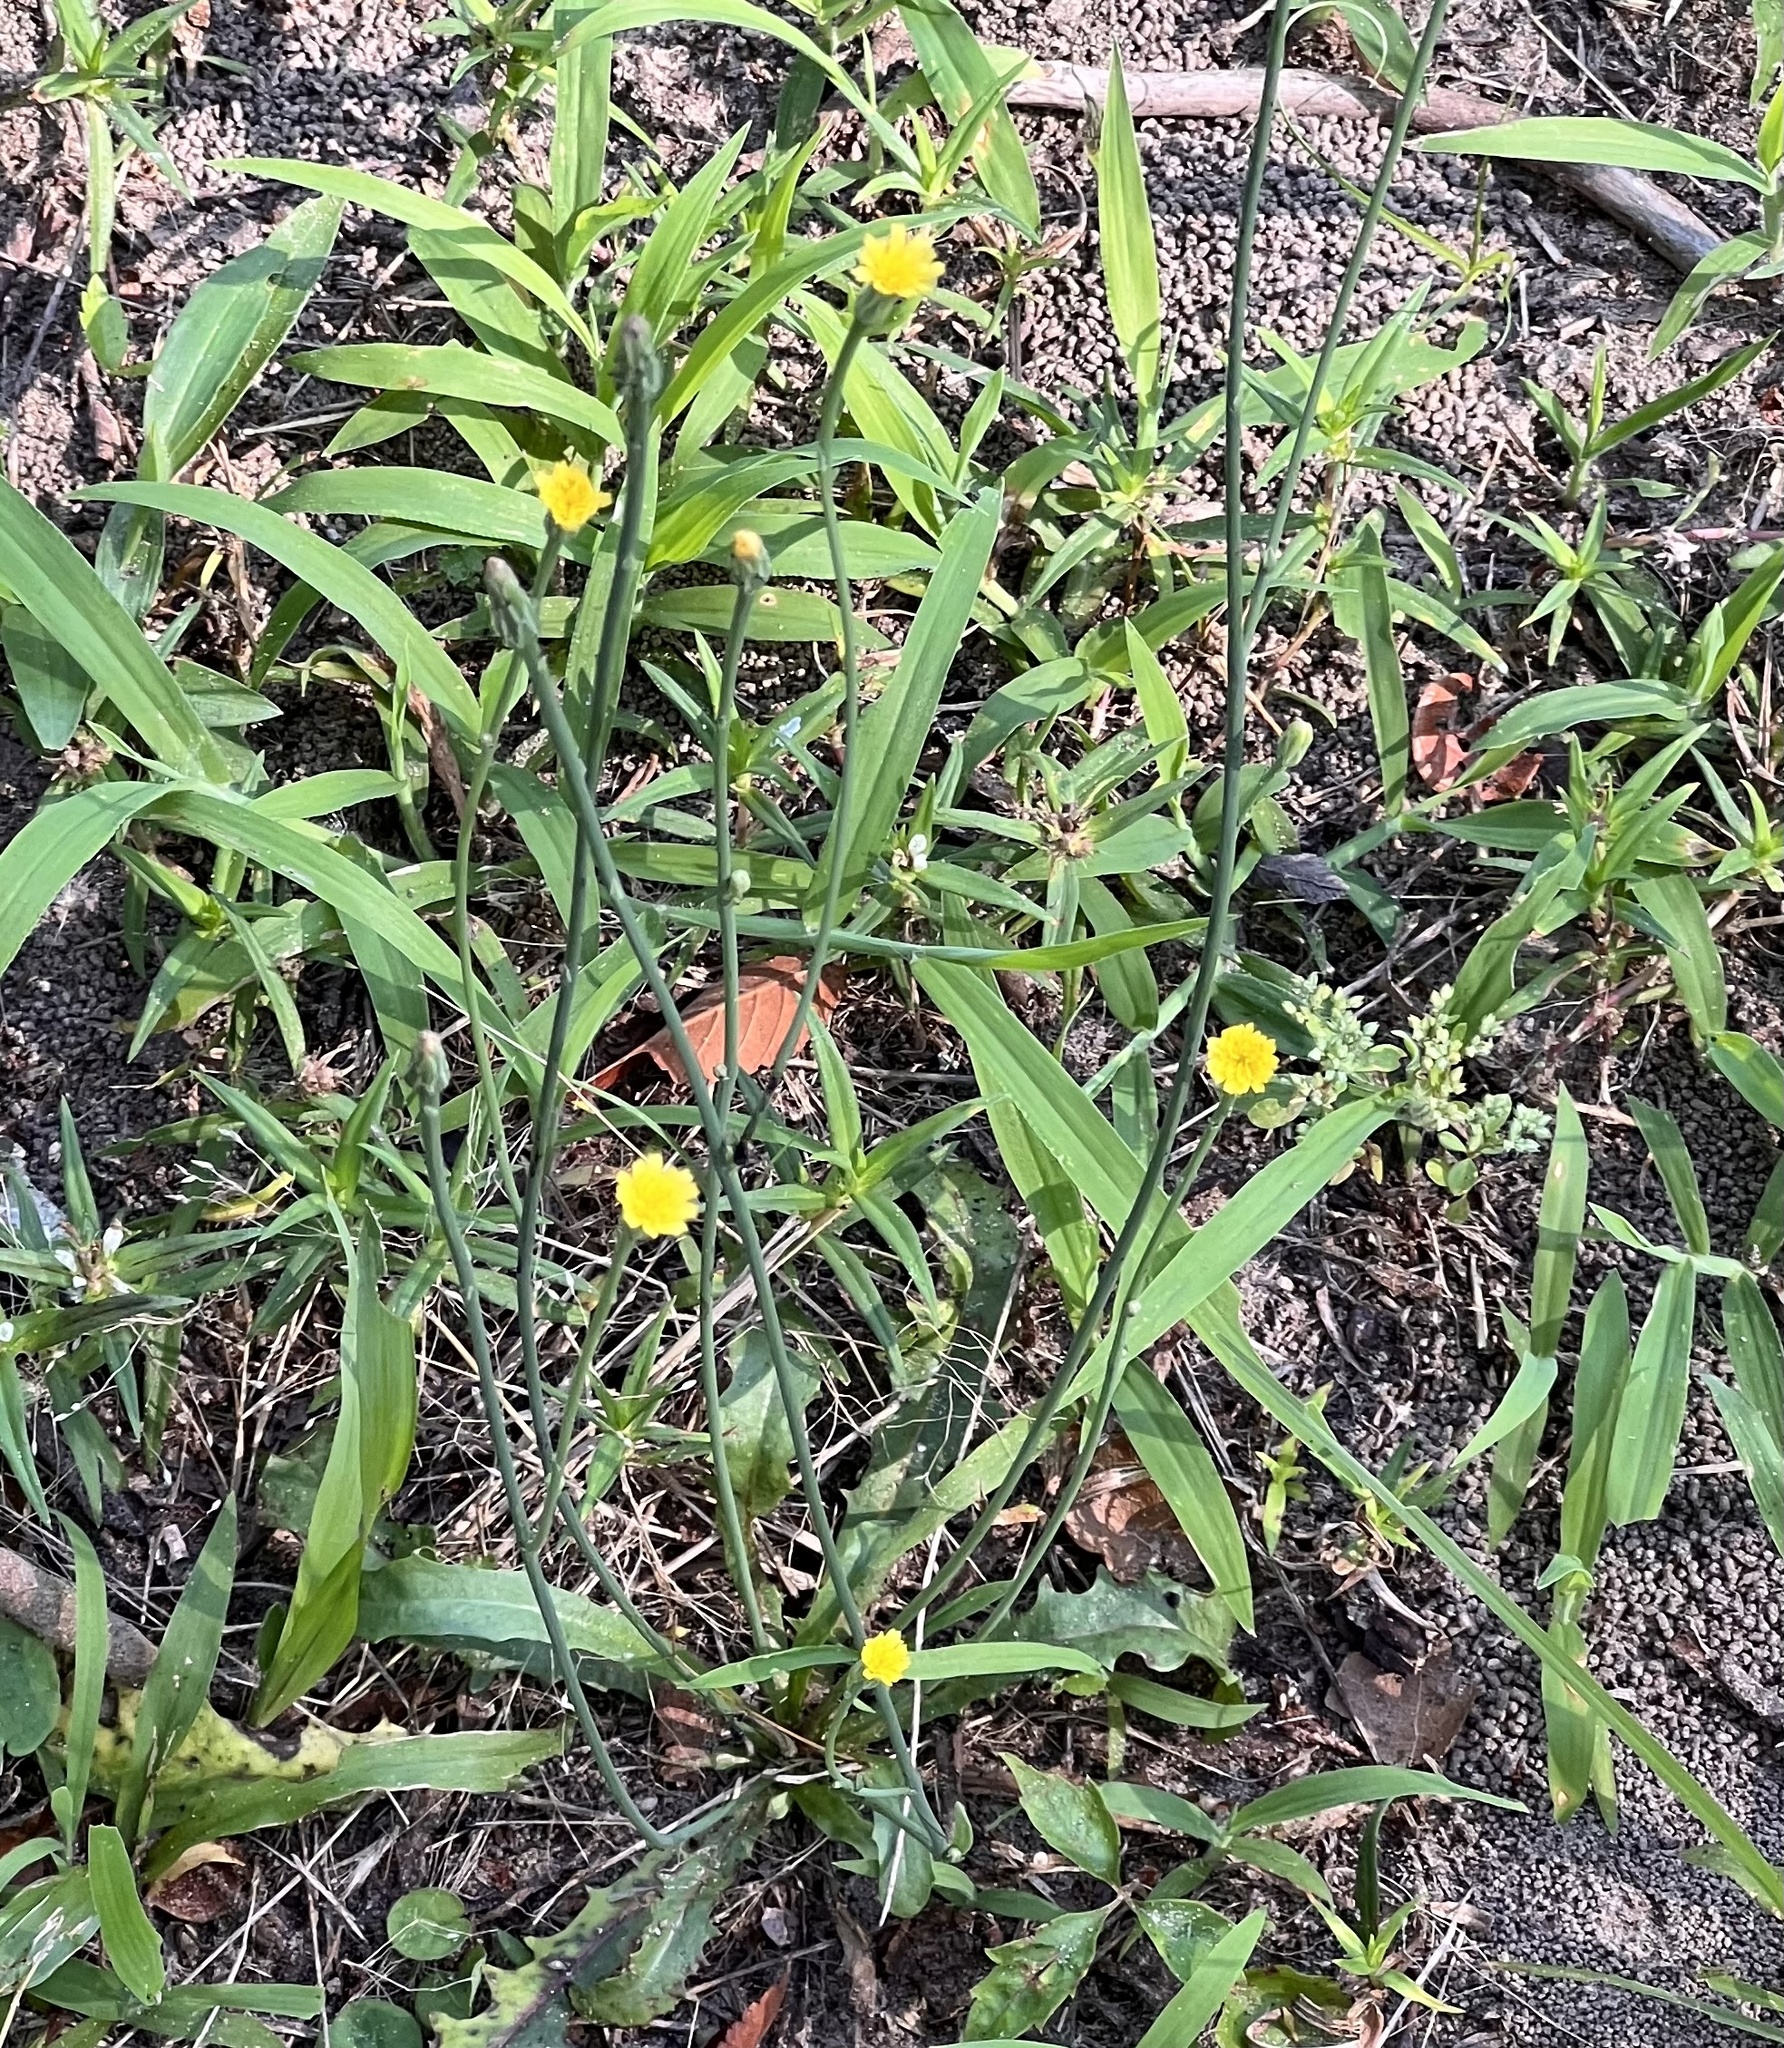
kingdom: Plantae
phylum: Tracheophyta
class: Magnoliopsida
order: Asterales
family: Asteraceae
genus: Hypochaeris
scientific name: Hypochaeris glabra
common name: Smooth catsear
